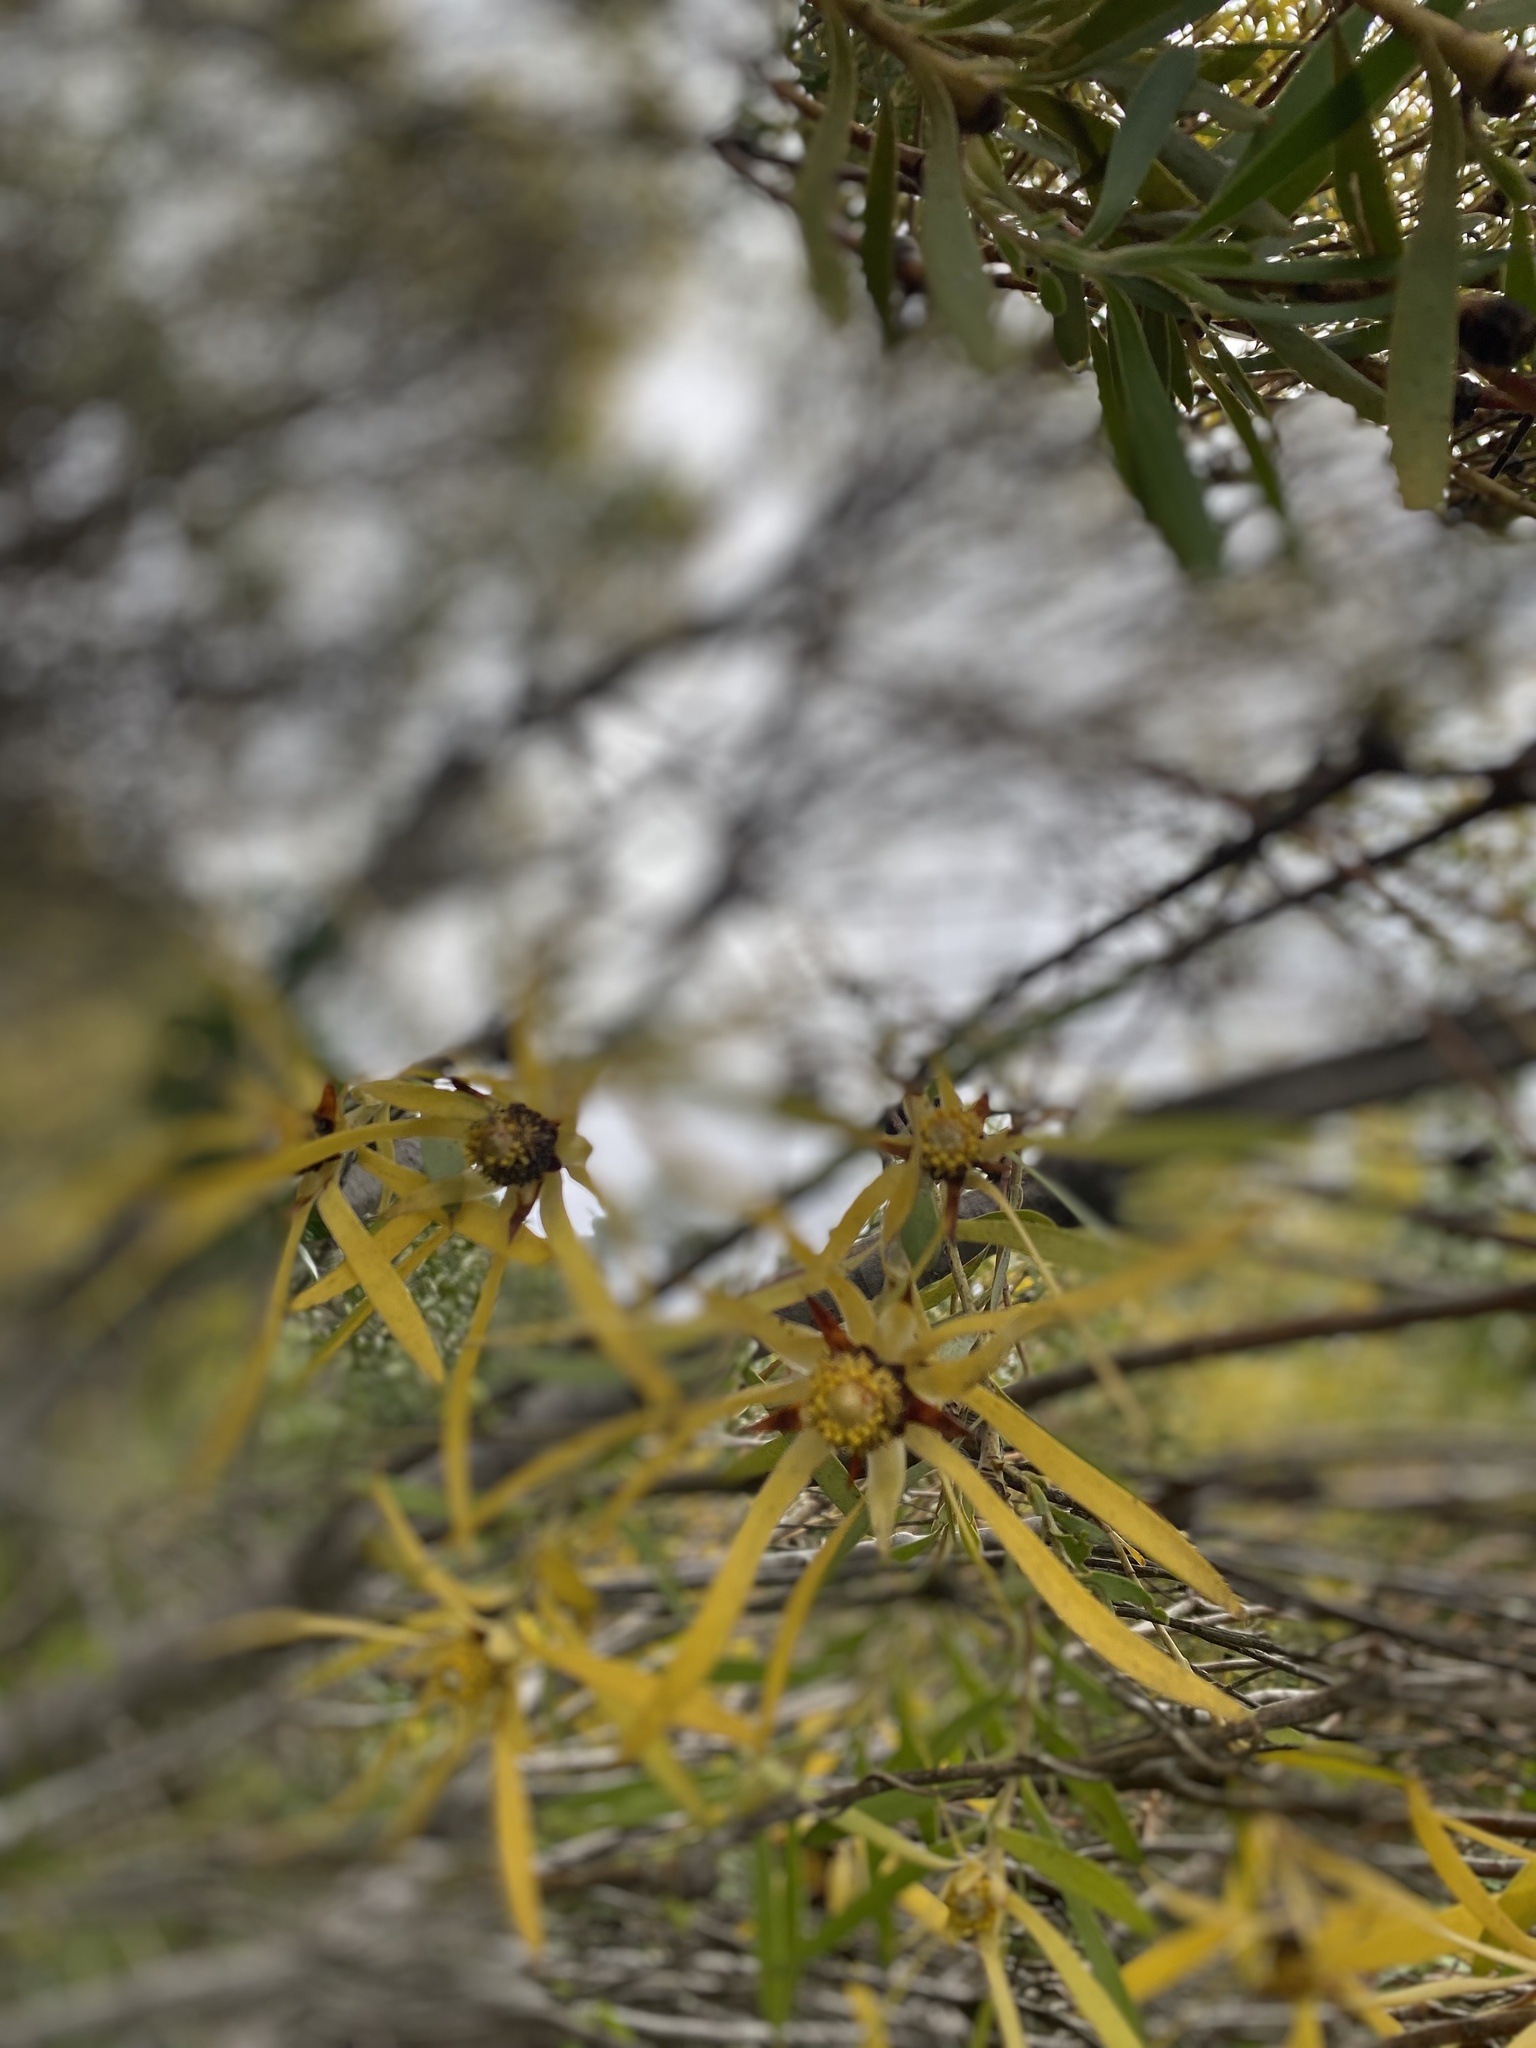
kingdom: Plantae
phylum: Tracheophyta
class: Magnoliopsida
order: Proteales
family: Proteaceae
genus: Leucadendron
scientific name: Leucadendron coniferum
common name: Dune conebush
